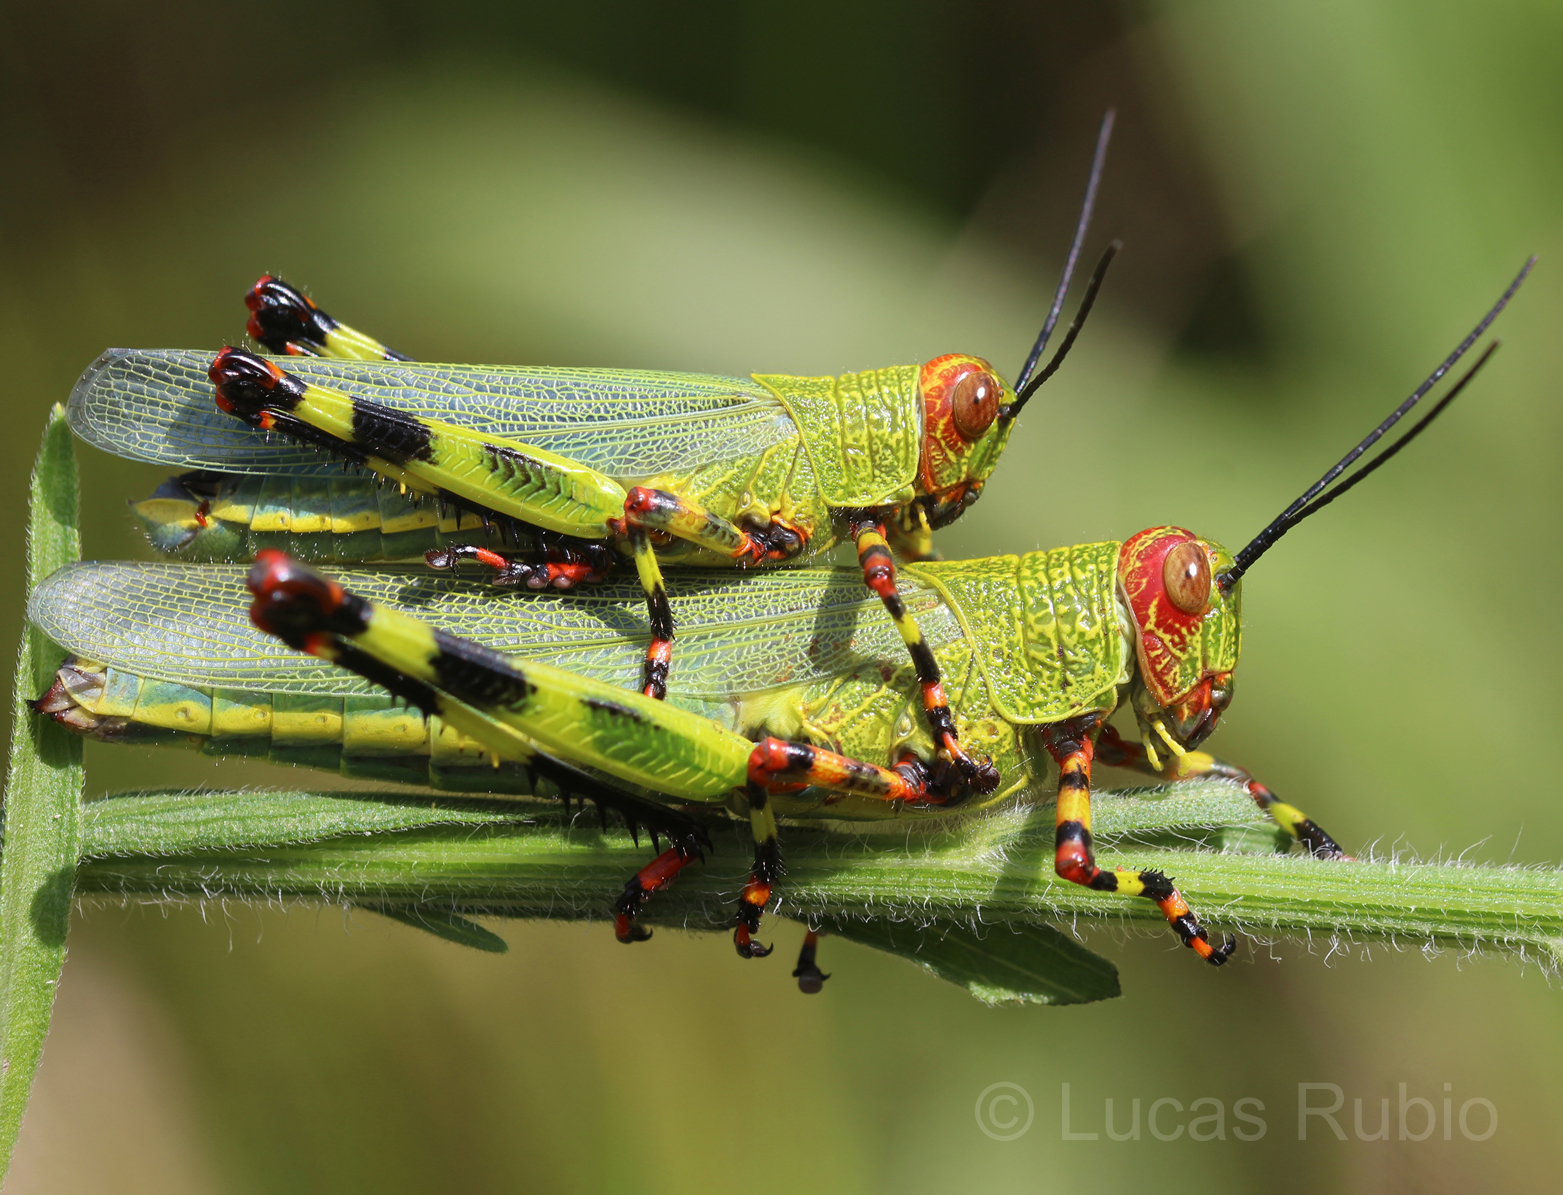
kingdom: Animalia
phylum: Arthropoda
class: Insecta
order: Orthoptera
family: Romaleidae
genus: Zoniopoda
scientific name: Zoniopoda tarsata
